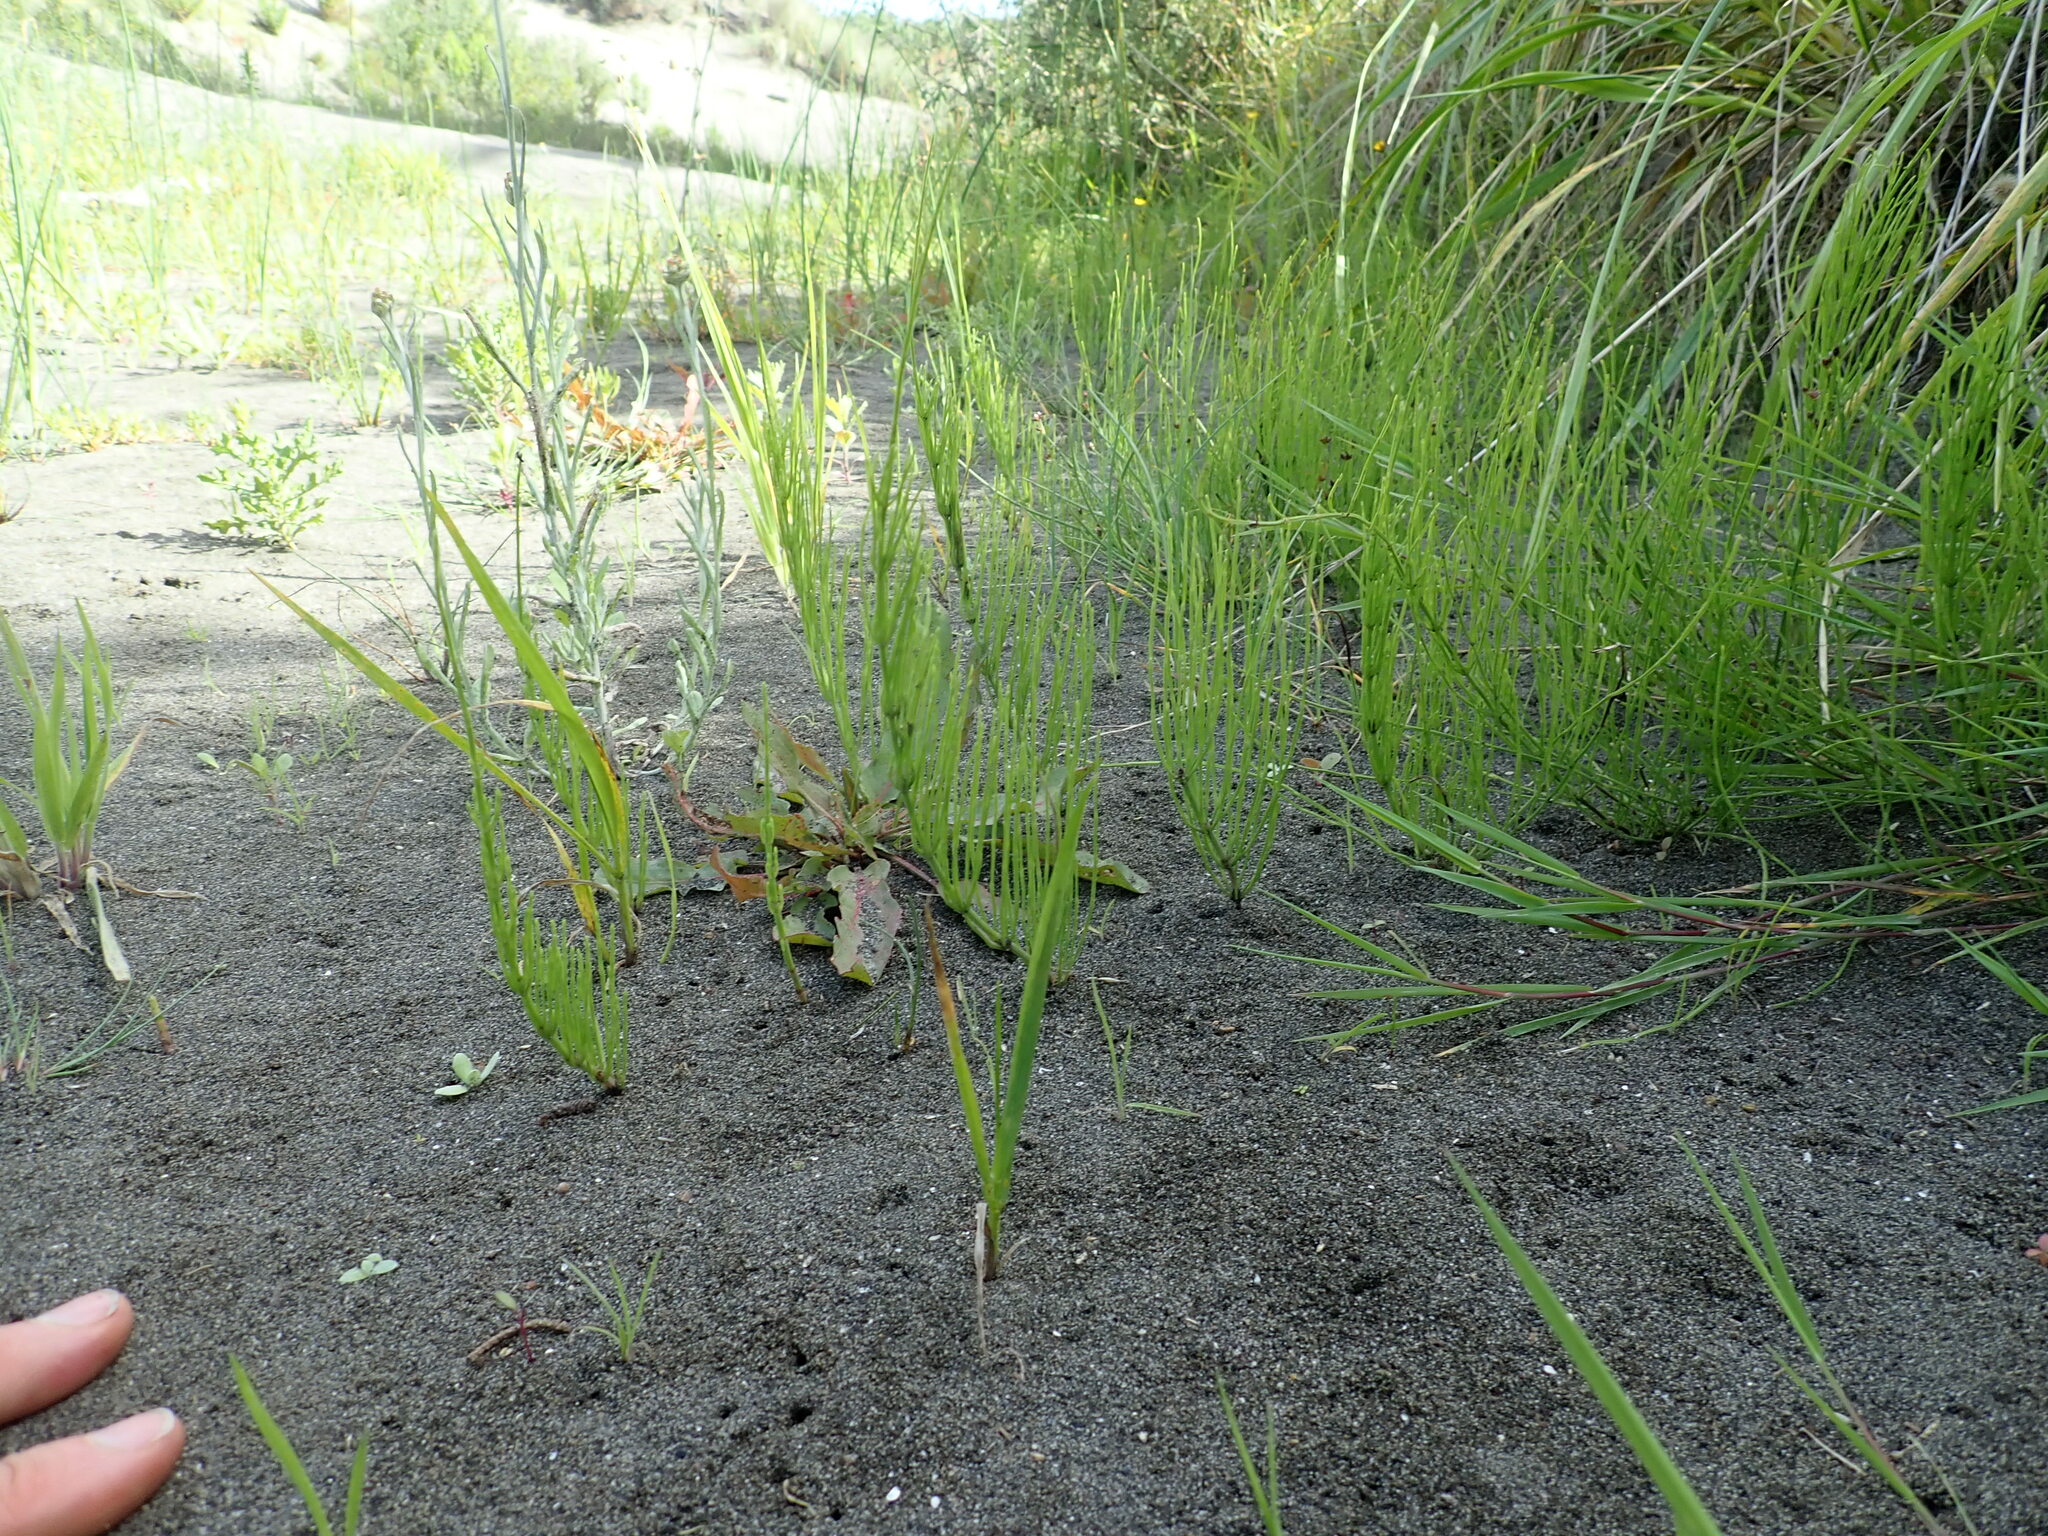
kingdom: Plantae
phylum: Tracheophyta
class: Polypodiopsida
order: Equisetales
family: Equisetaceae
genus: Equisetum
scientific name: Equisetum arvense
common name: Field horsetail
